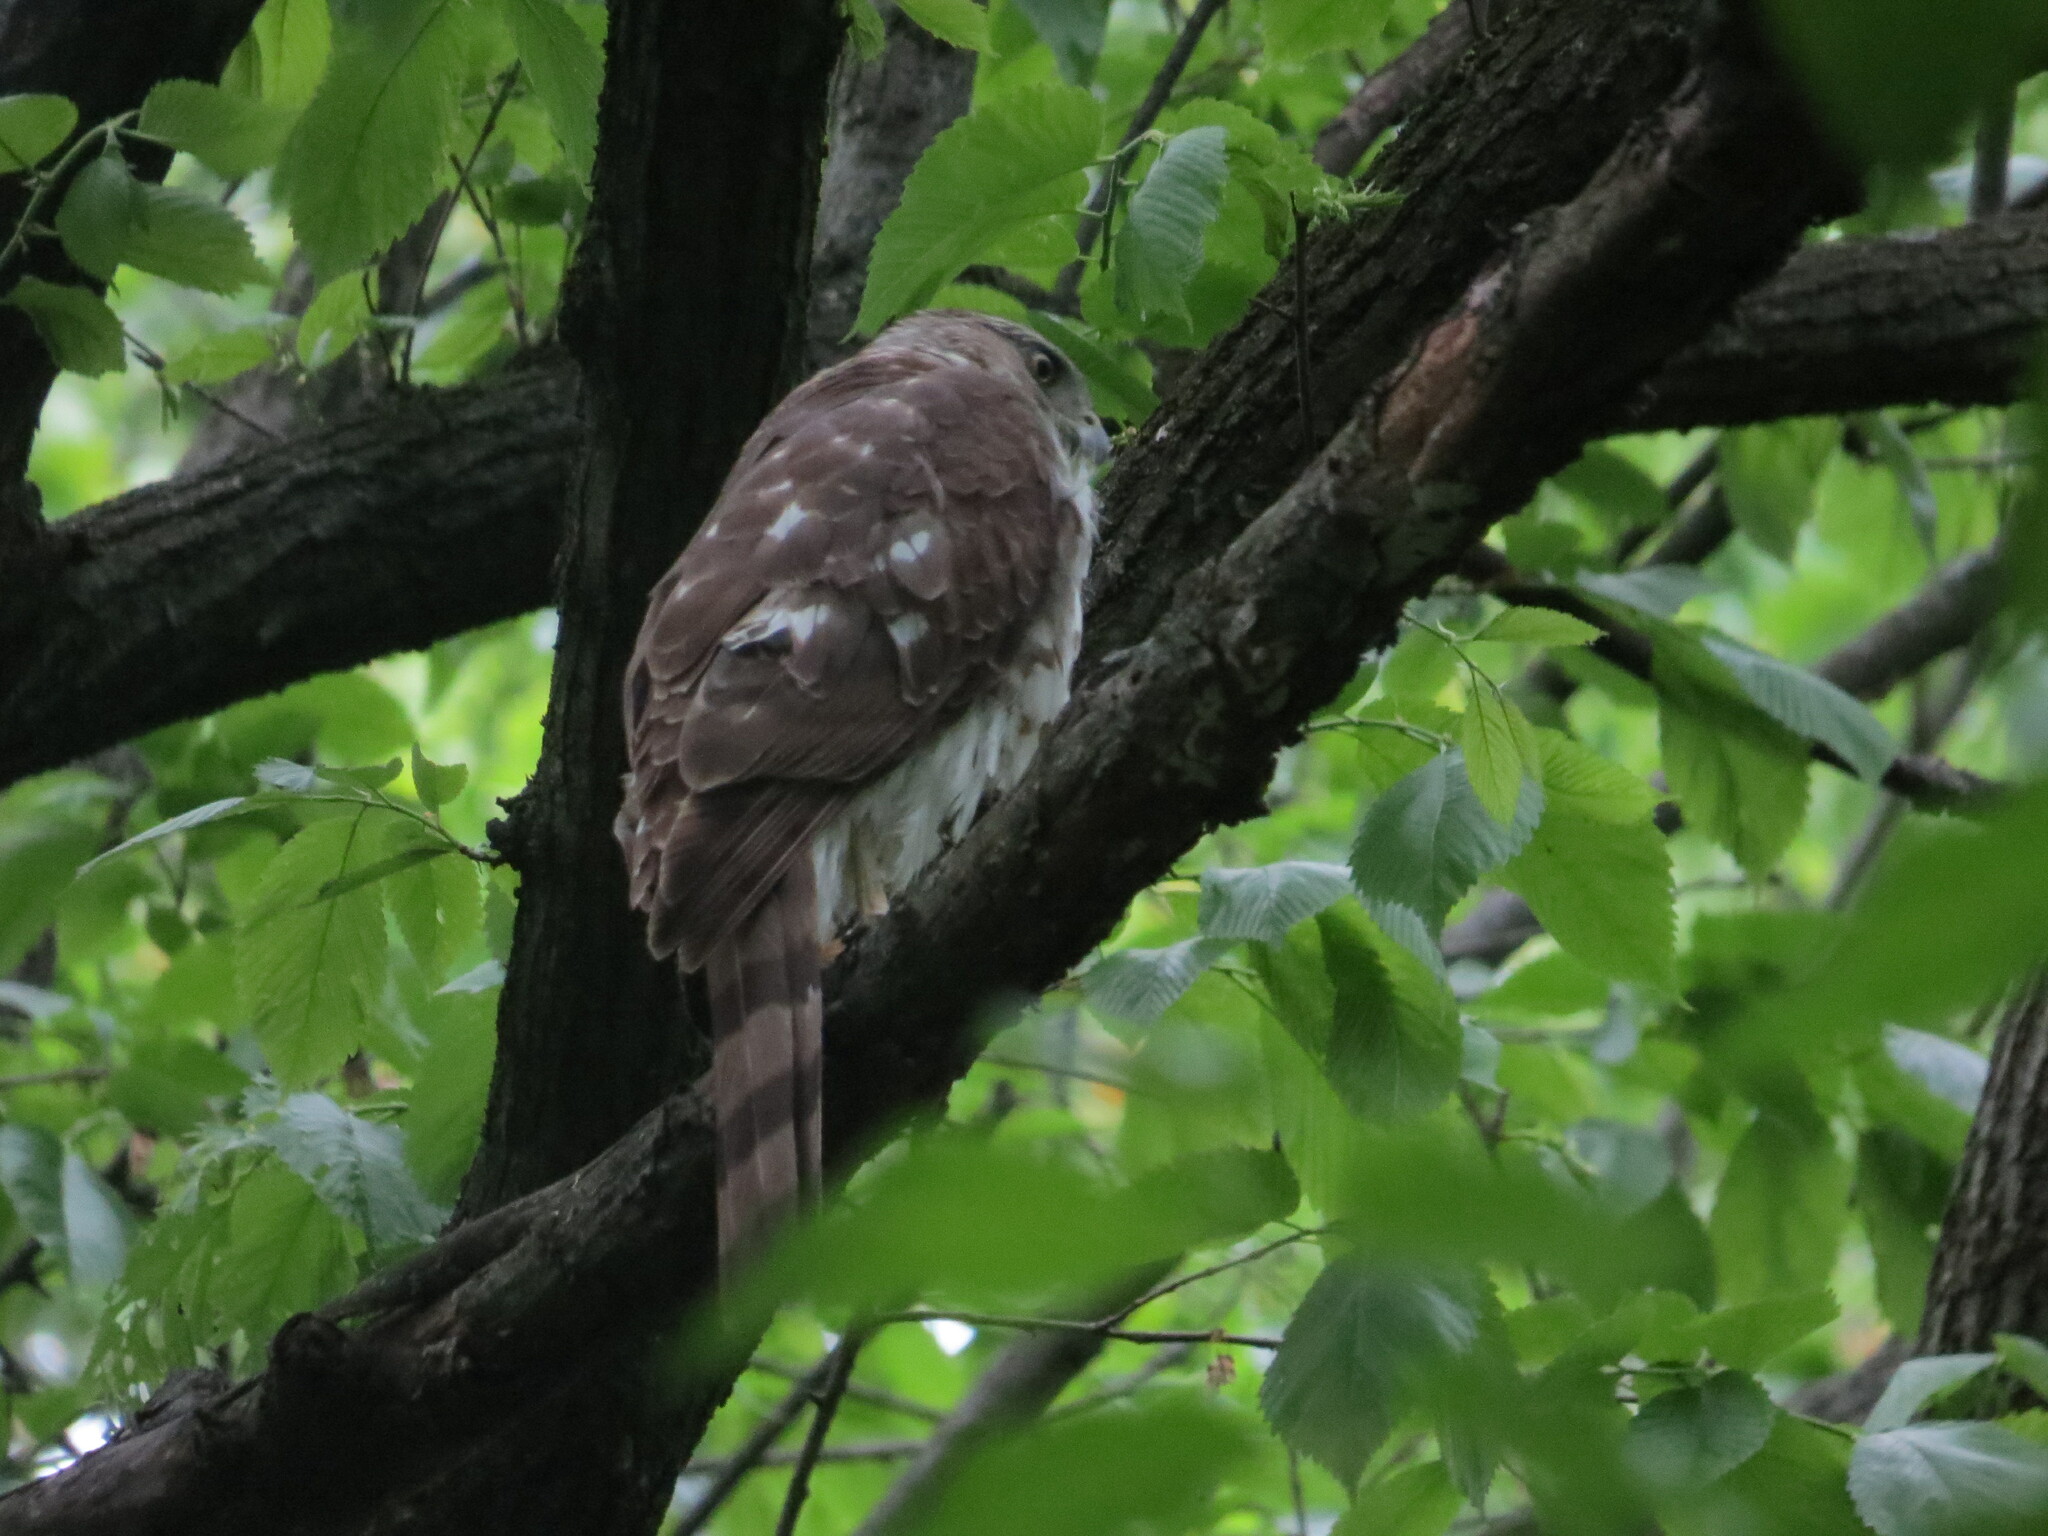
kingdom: Animalia
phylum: Chordata
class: Aves
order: Accipitriformes
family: Accipitridae
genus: Accipiter
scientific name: Accipiter cooperii
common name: Cooper's hawk
